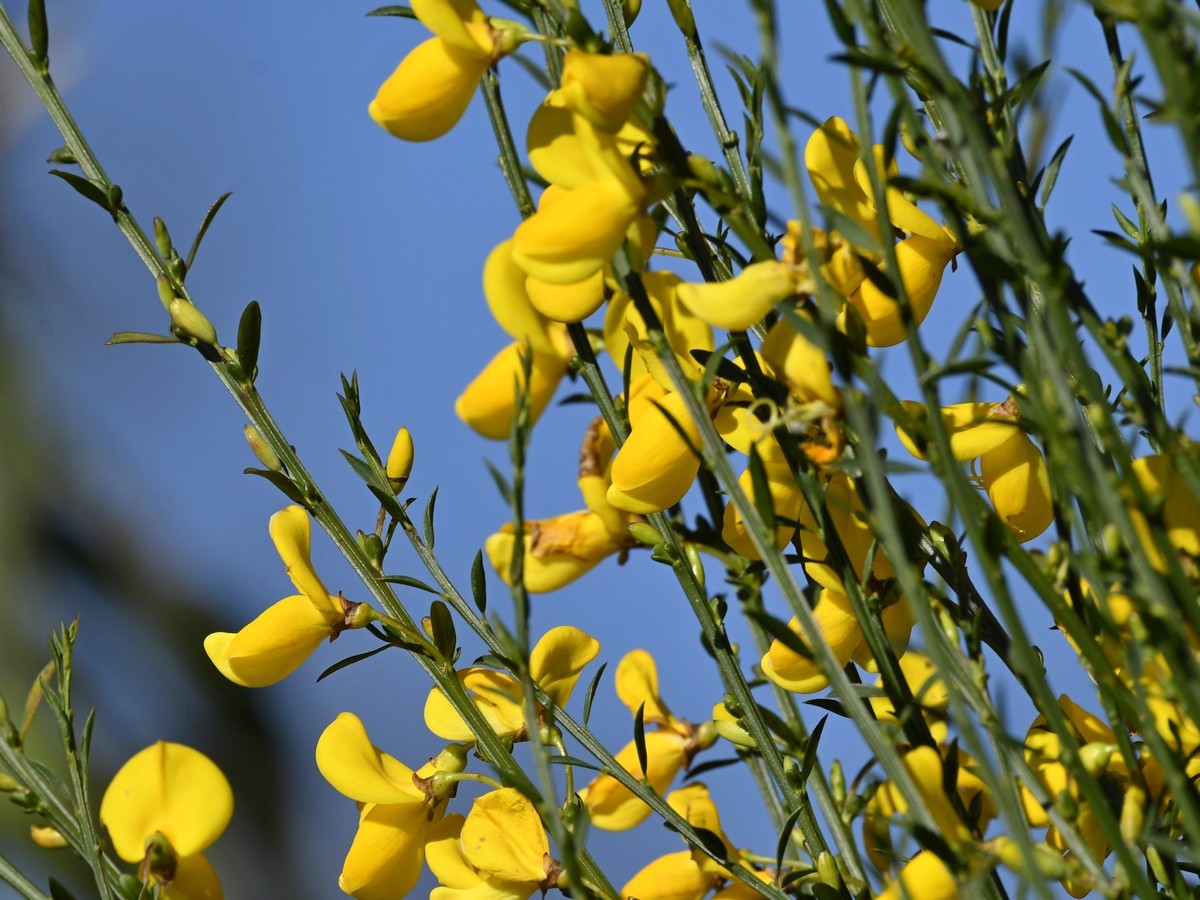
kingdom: Plantae
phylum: Tracheophyta
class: Magnoliopsida
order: Fabales
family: Fabaceae
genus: Cytisus
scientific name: Cytisus scoparius
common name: Scotch broom
